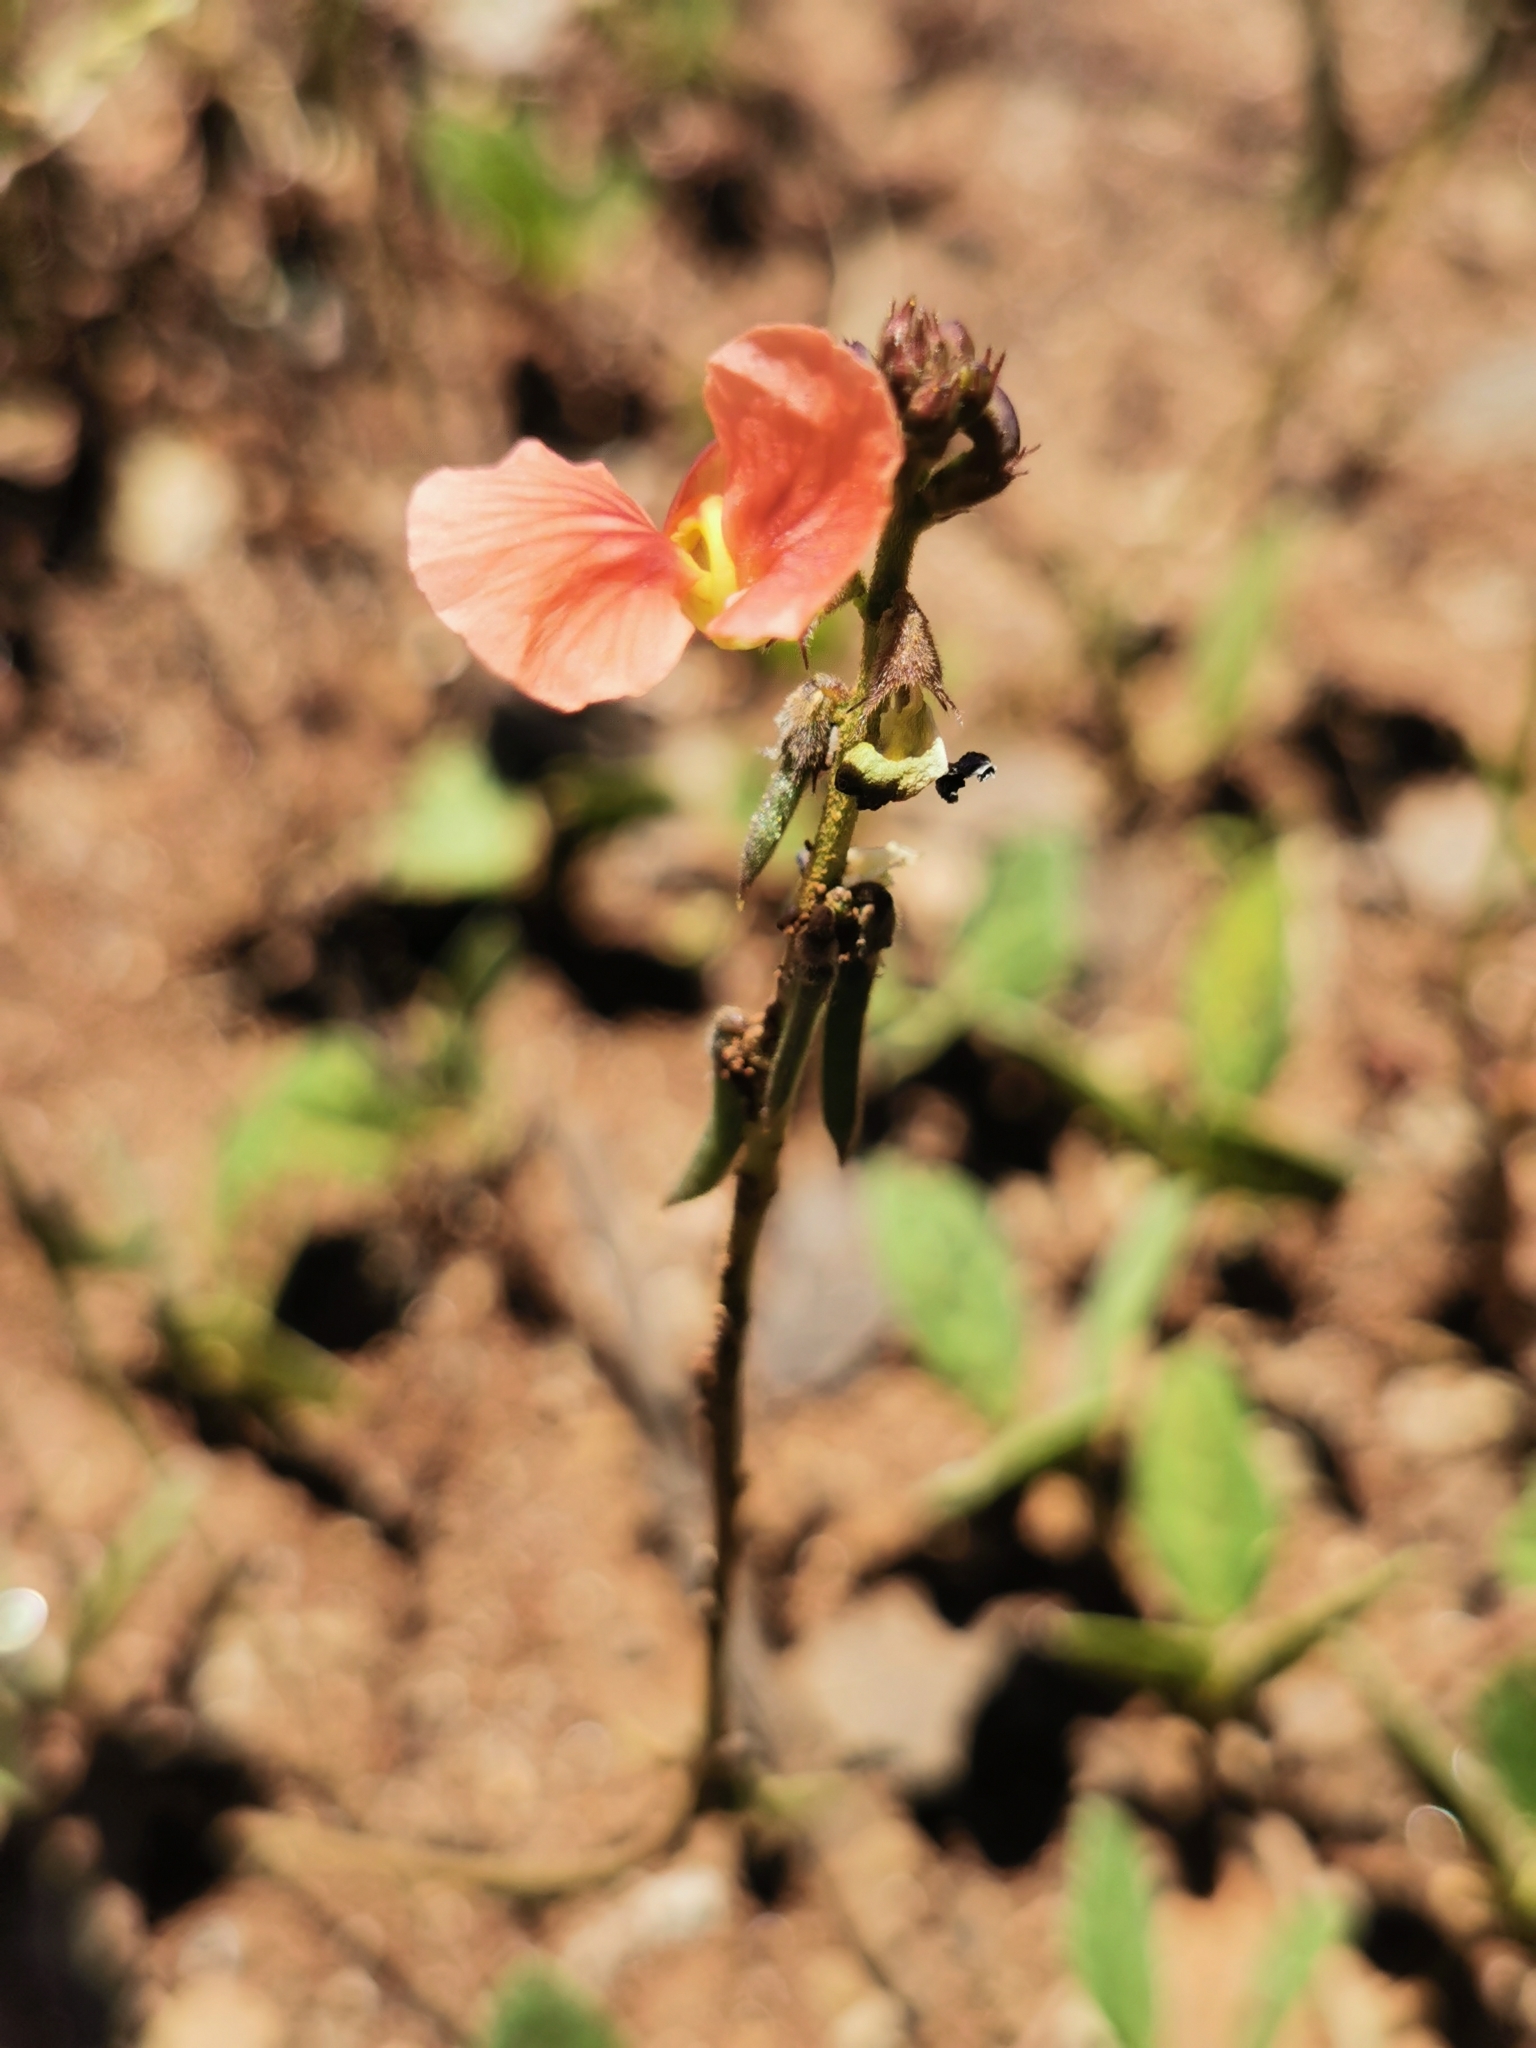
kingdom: Plantae
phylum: Tracheophyta
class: Magnoliopsida
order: Fabales
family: Fabaceae
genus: Macroptilium
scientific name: Macroptilium gibbosifolium
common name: Variableleaf bushbean
